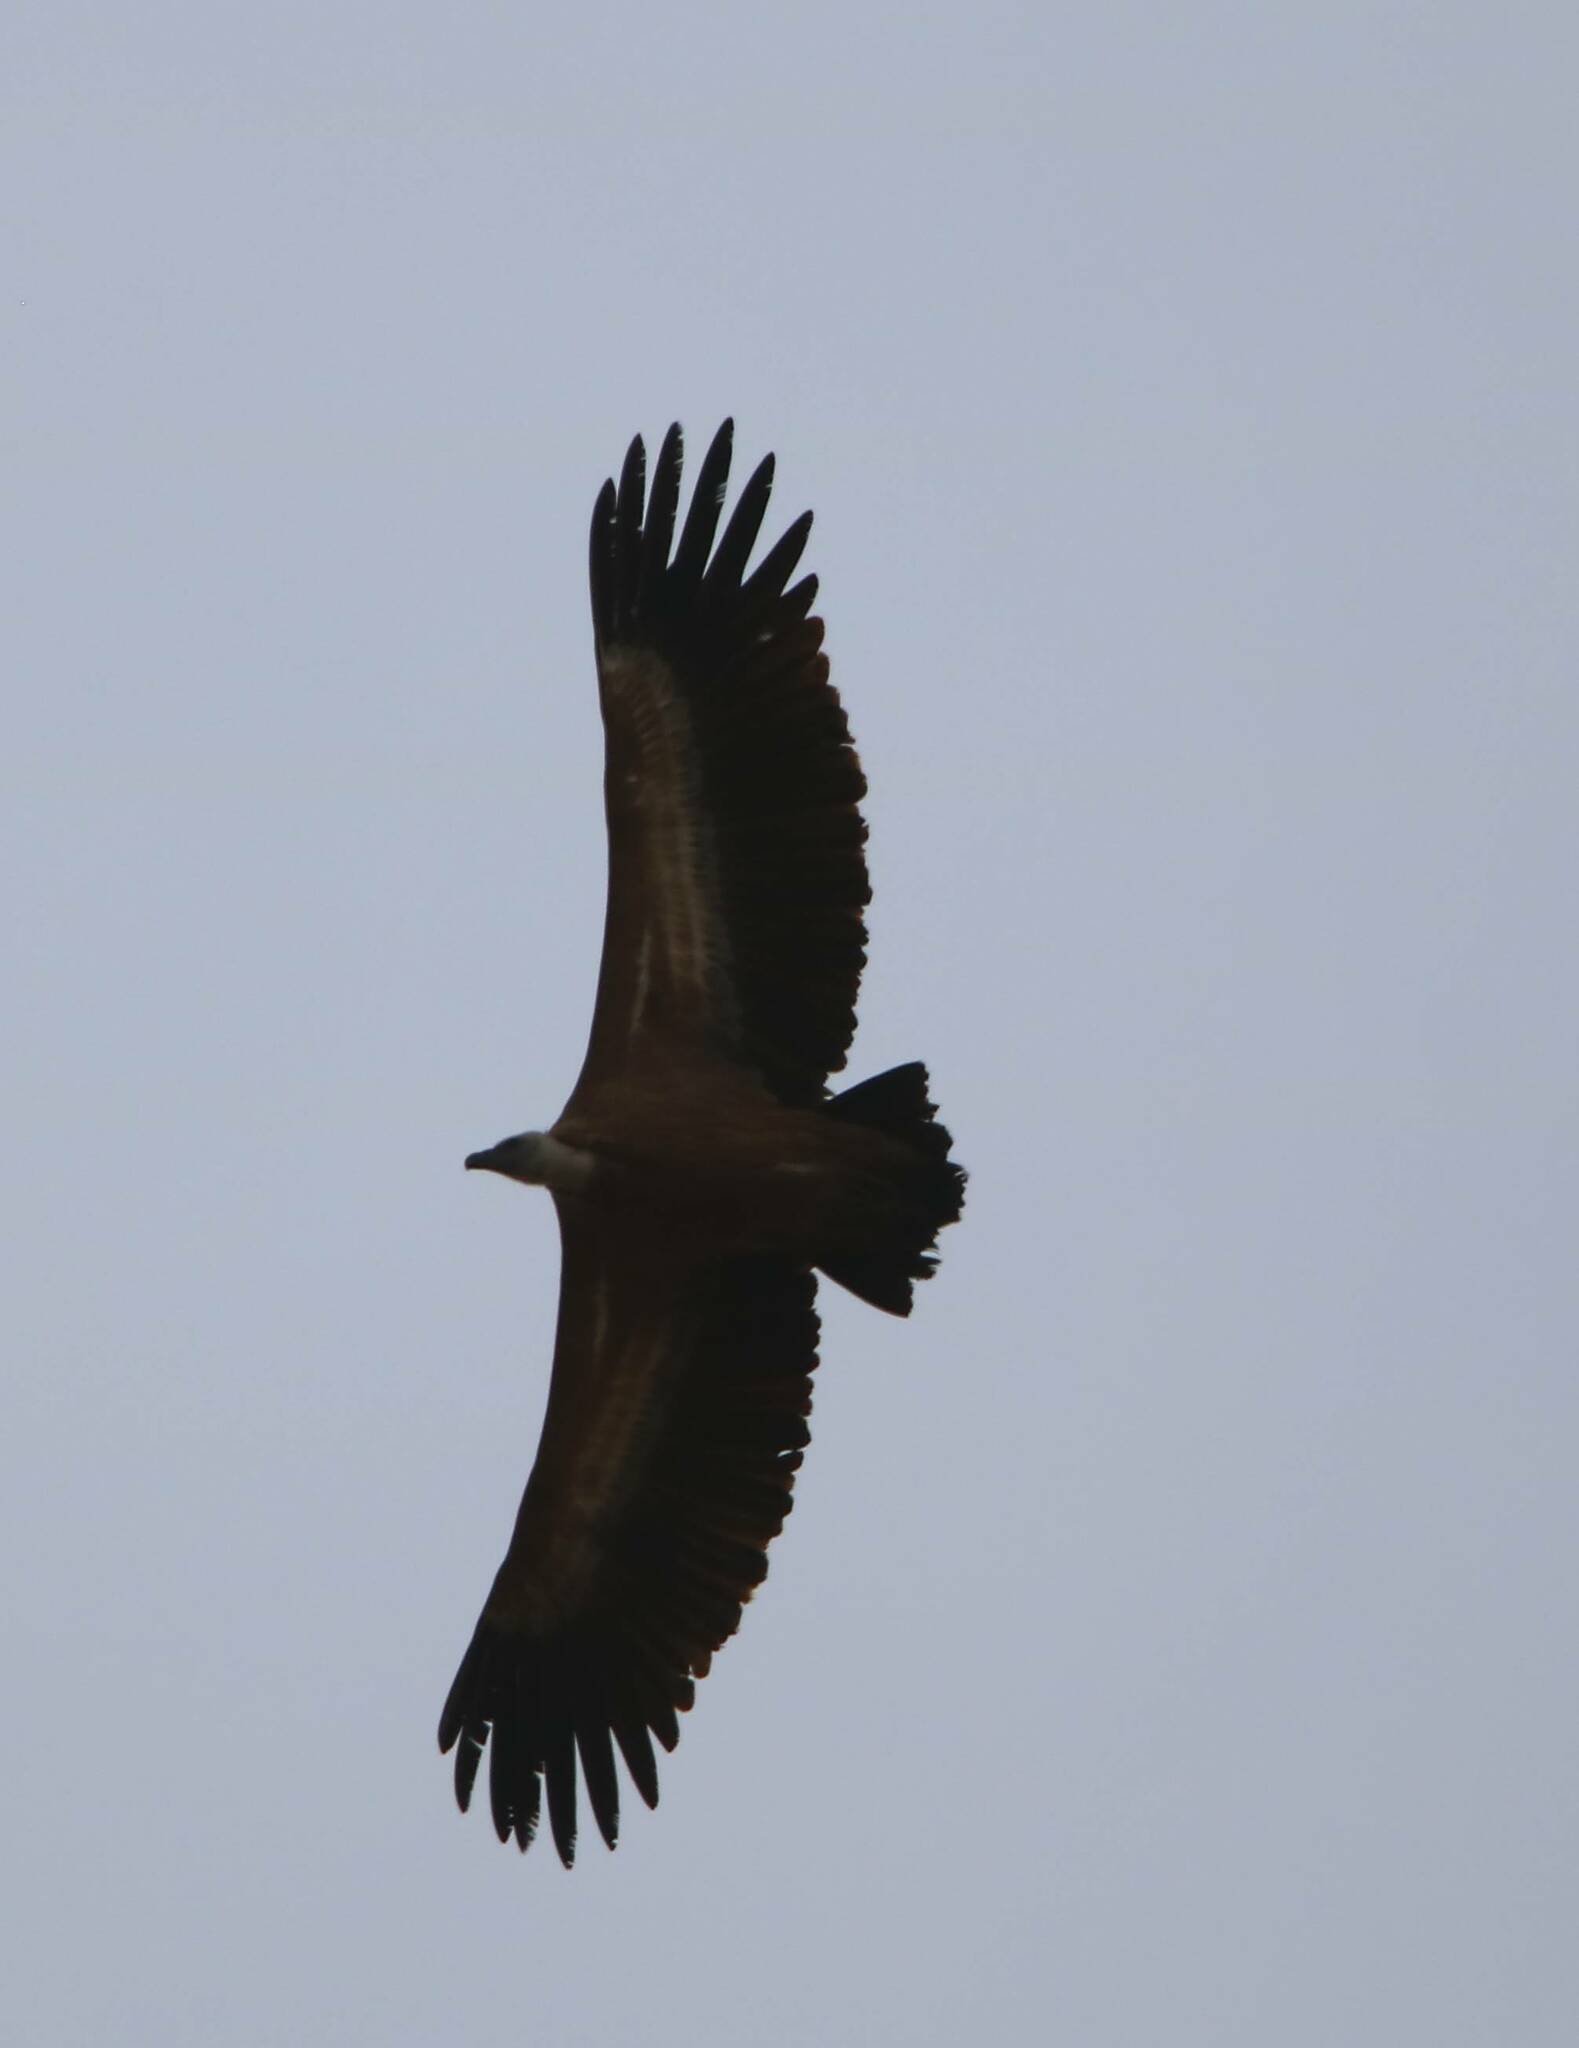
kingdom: Animalia
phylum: Chordata
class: Aves
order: Accipitriformes
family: Accipitridae
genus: Gyps
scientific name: Gyps fulvus
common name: Griffon vulture
